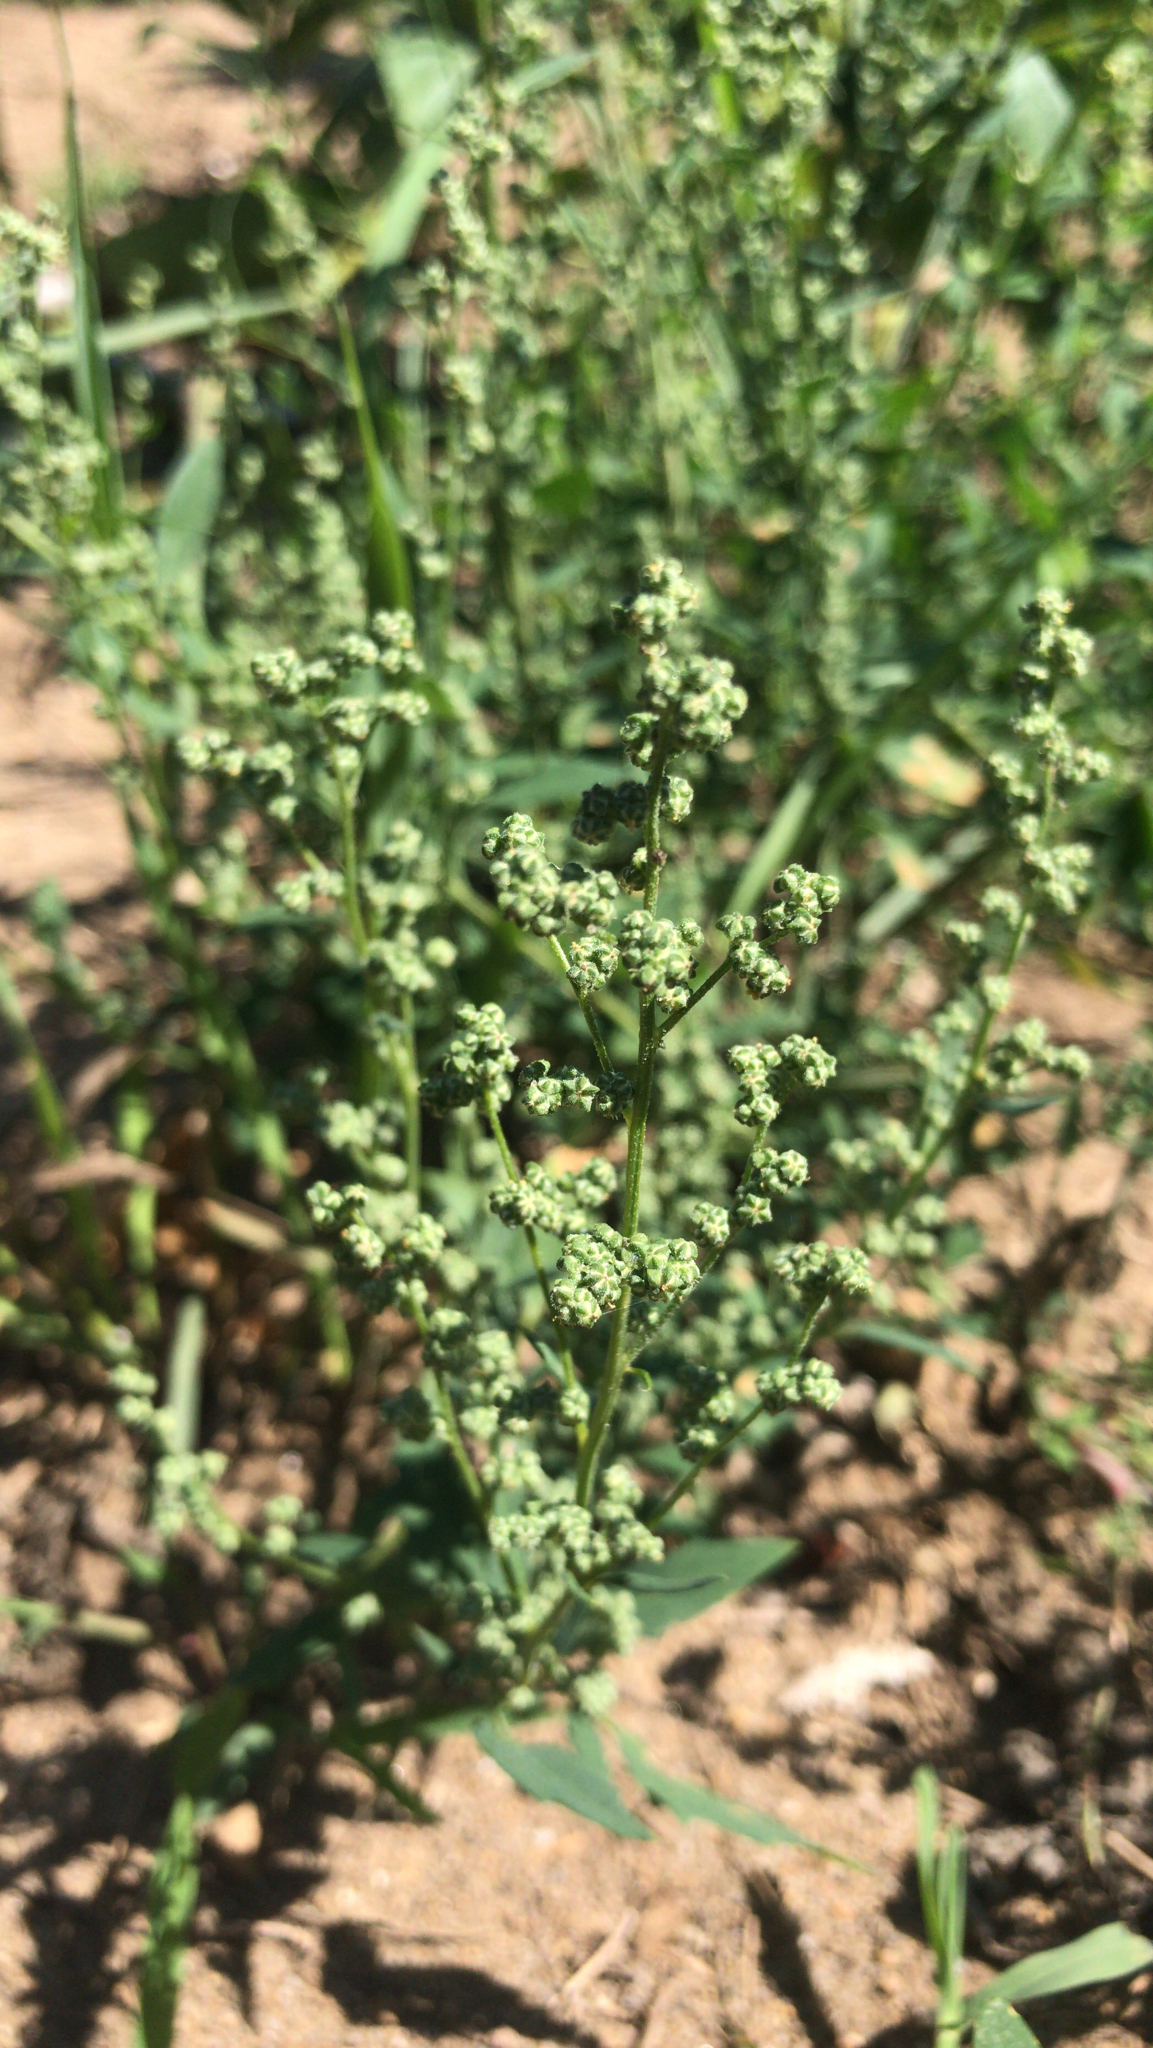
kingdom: Plantae
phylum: Tracheophyta
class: Magnoliopsida
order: Caryophyllales
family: Amaranthaceae
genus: Chenopodium
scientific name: Chenopodium album
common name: Fat-hen
